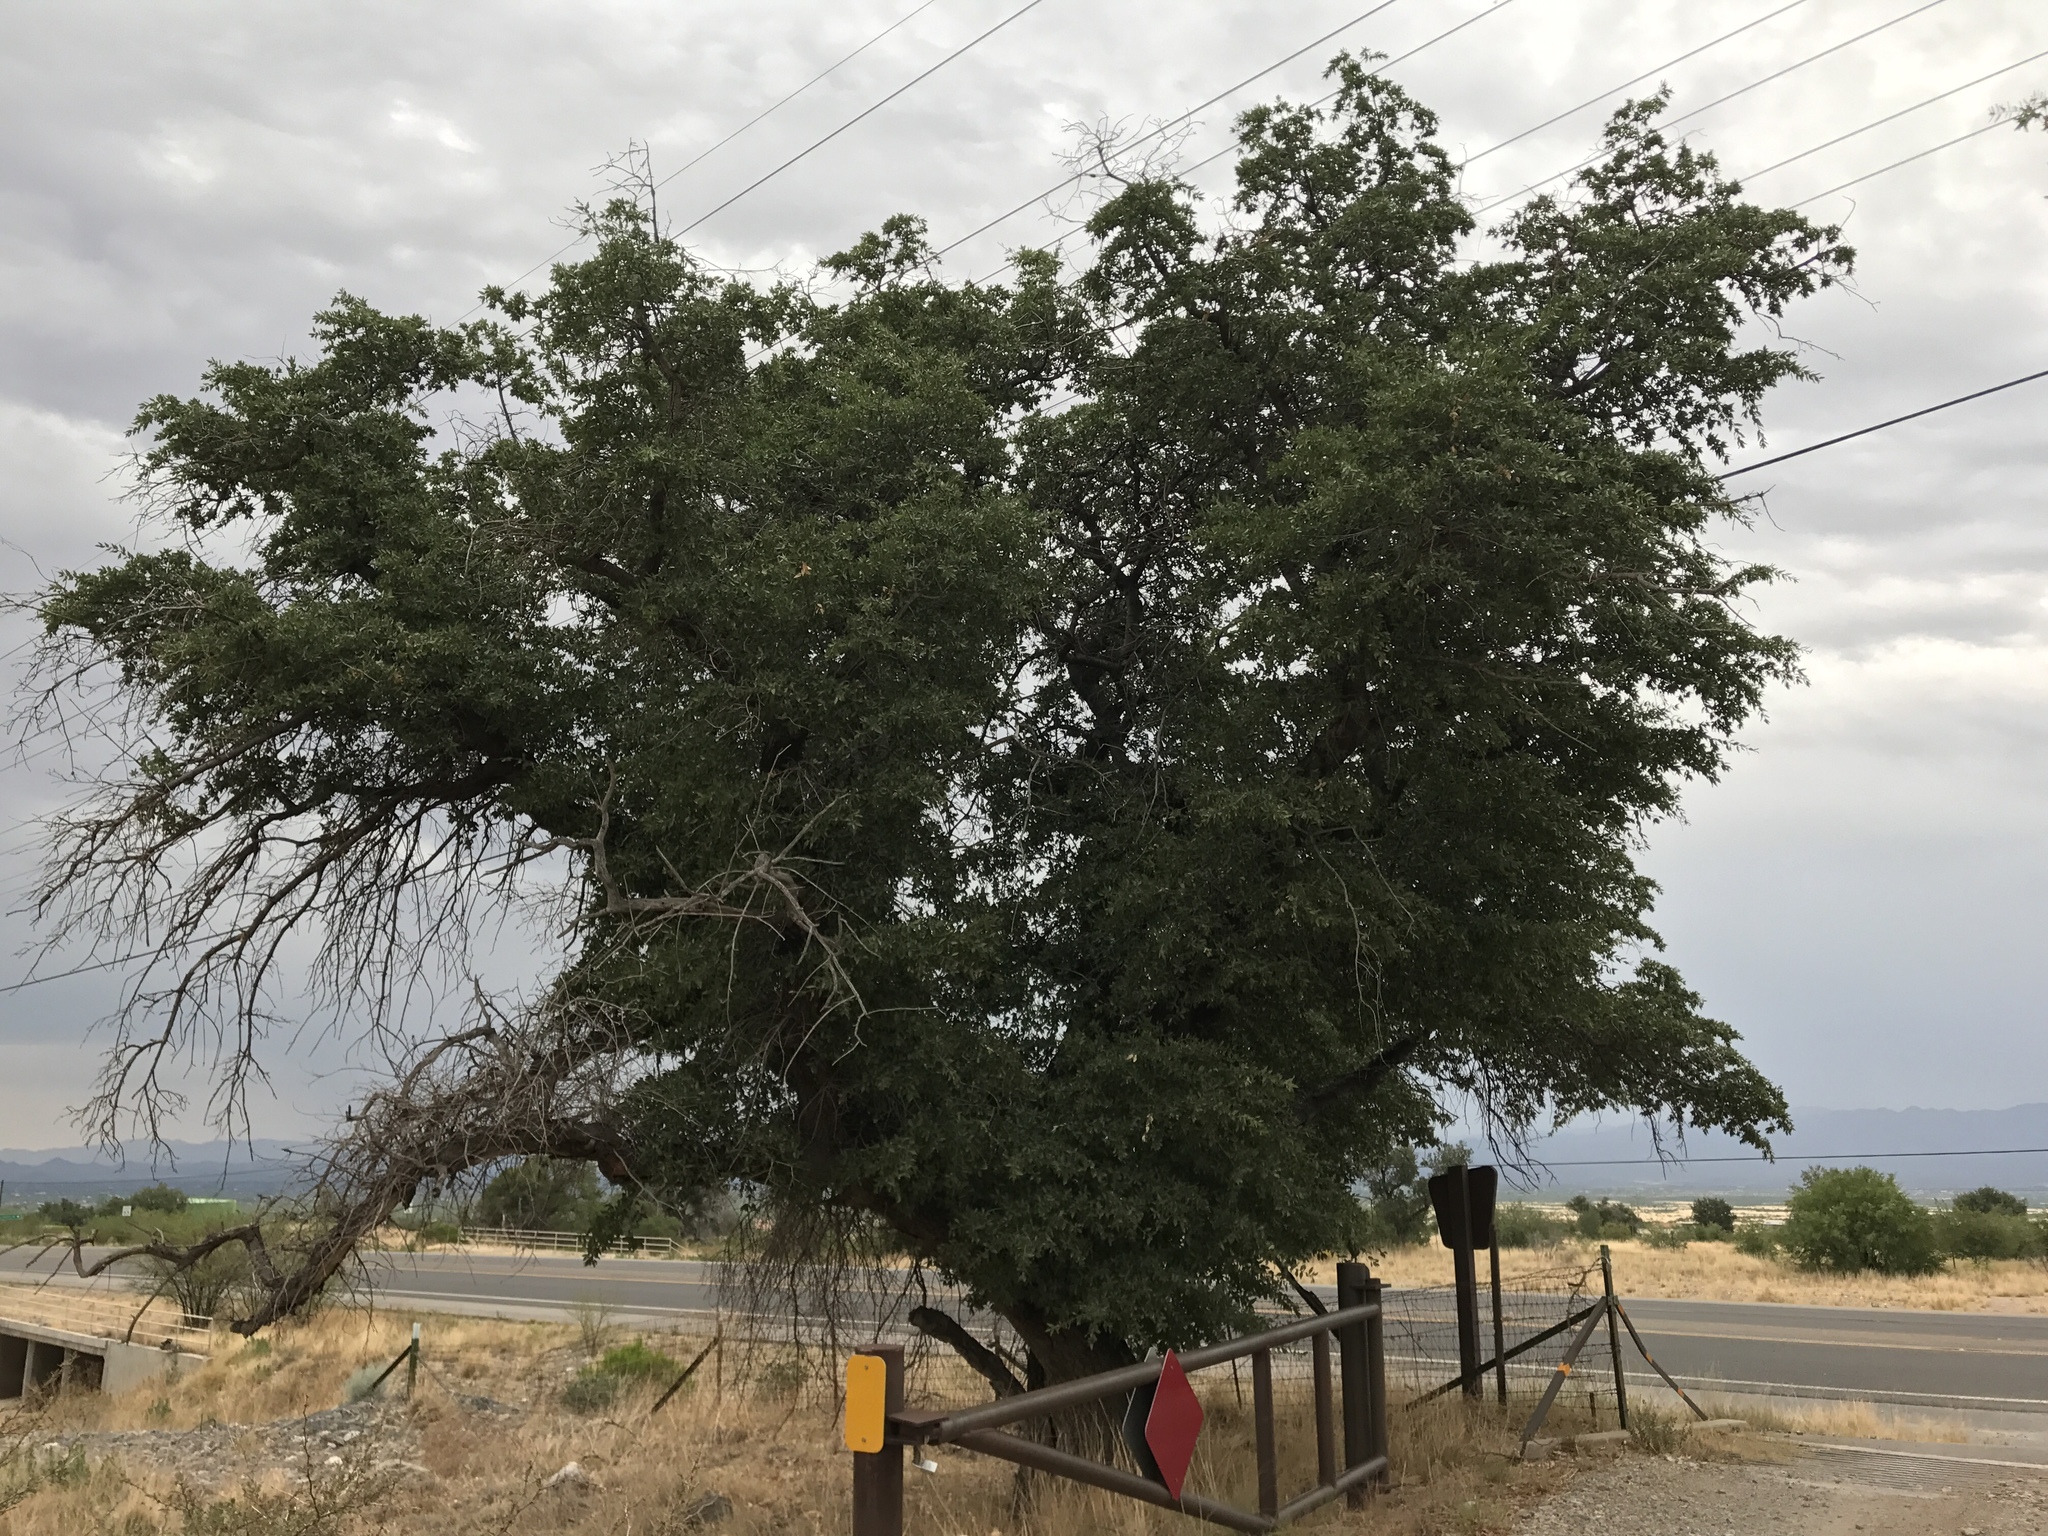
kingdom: Plantae
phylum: Tracheophyta
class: Magnoliopsida
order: Fagales
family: Fagaceae
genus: Quercus
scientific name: Quercus emoryi
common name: Emory oak
